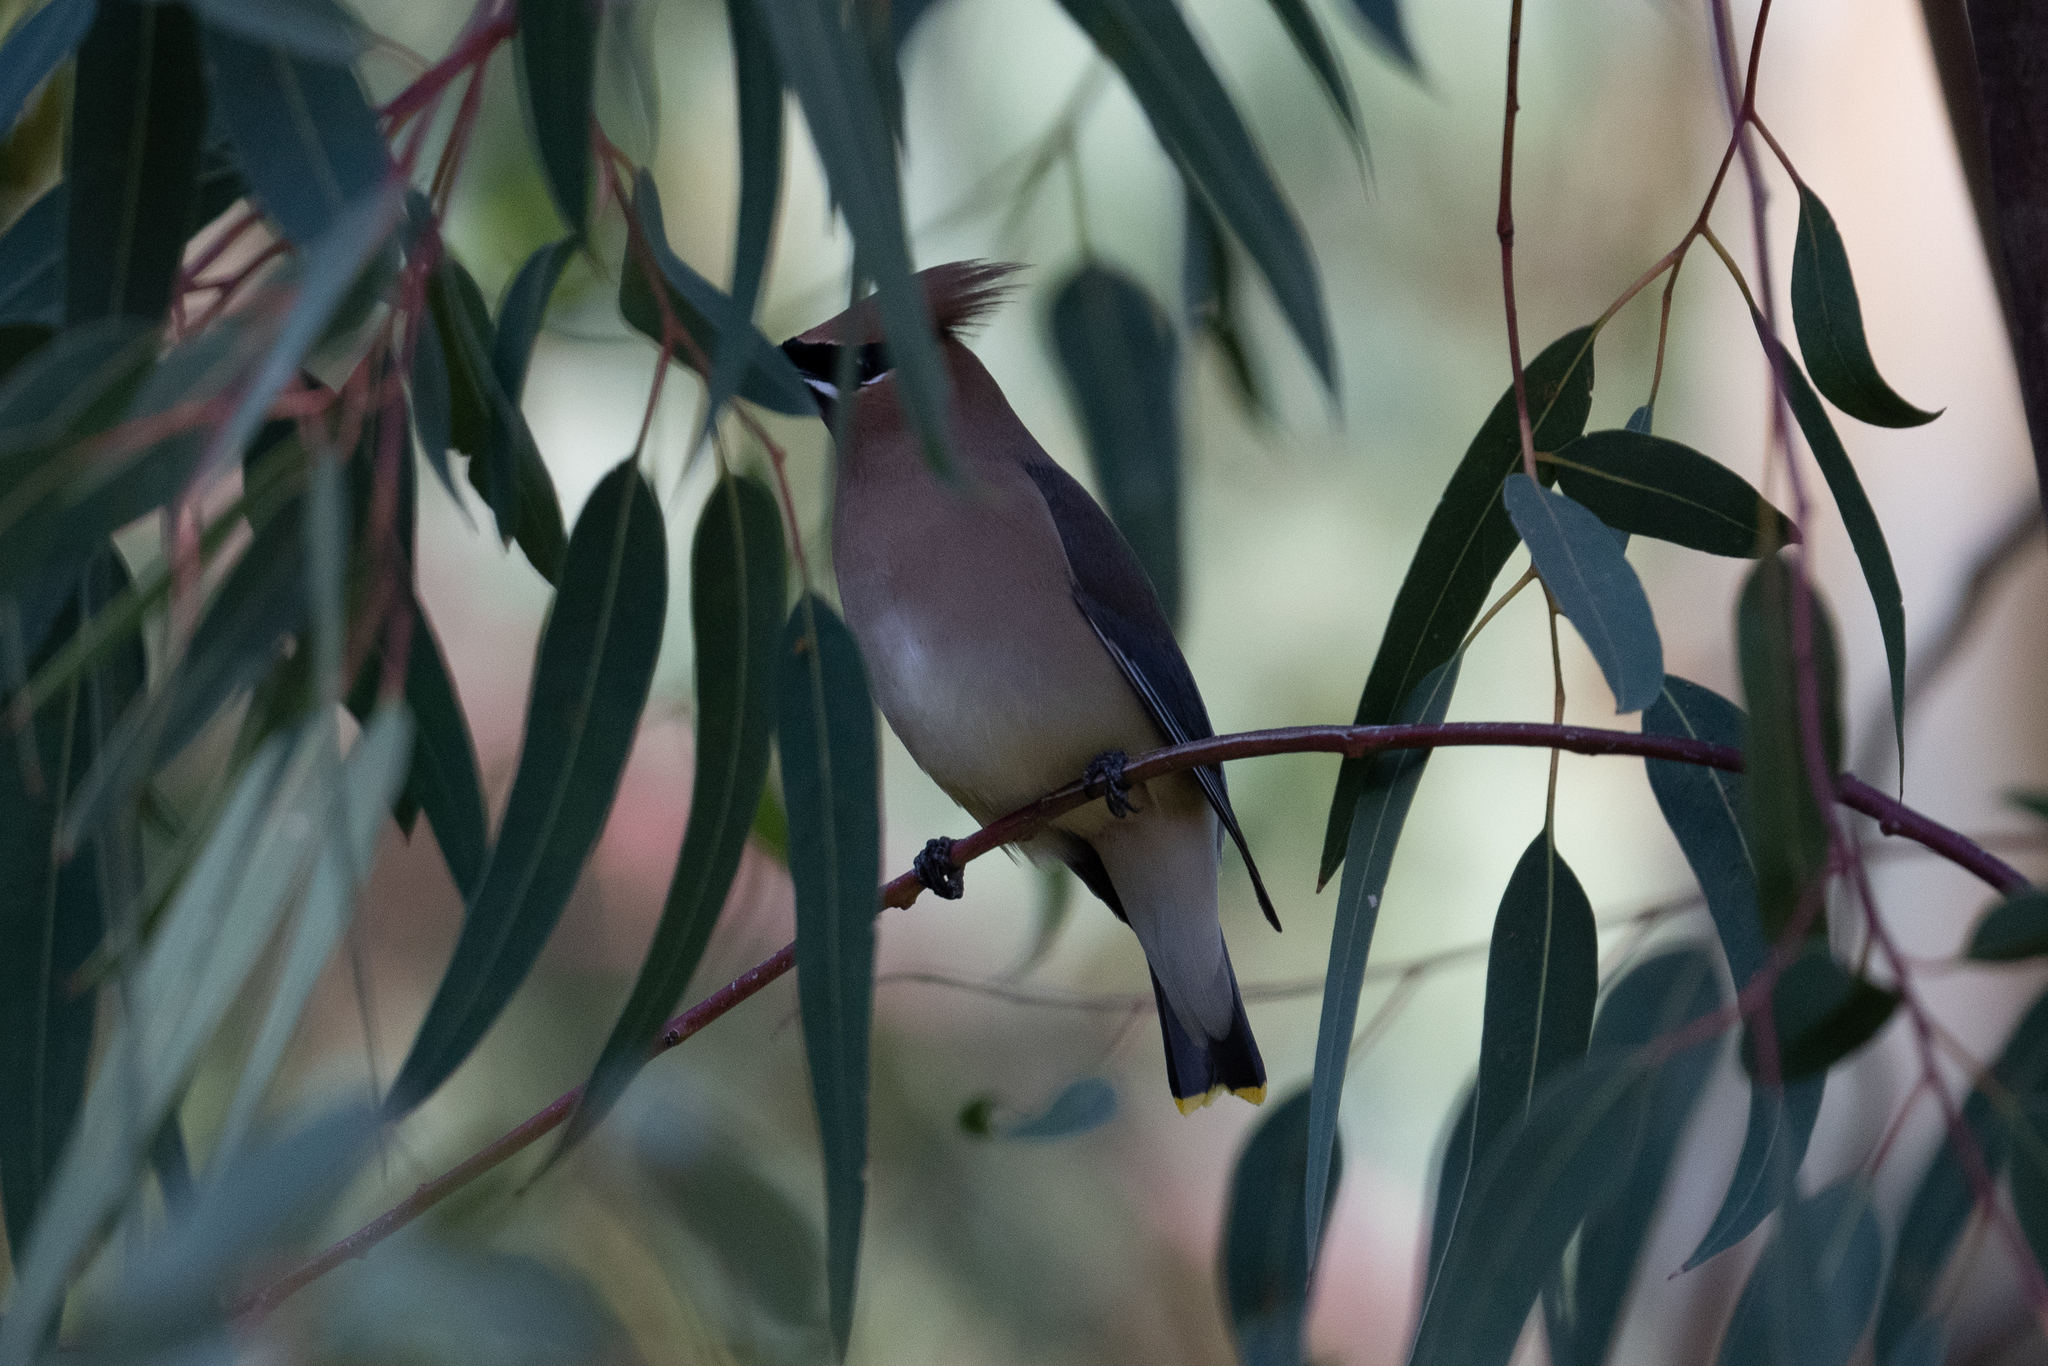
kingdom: Animalia
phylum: Chordata
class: Aves
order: Passeriformes
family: Bombycillidae
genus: Bombycilla
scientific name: Bombycilla cedrorum
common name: Cedar waxwing
